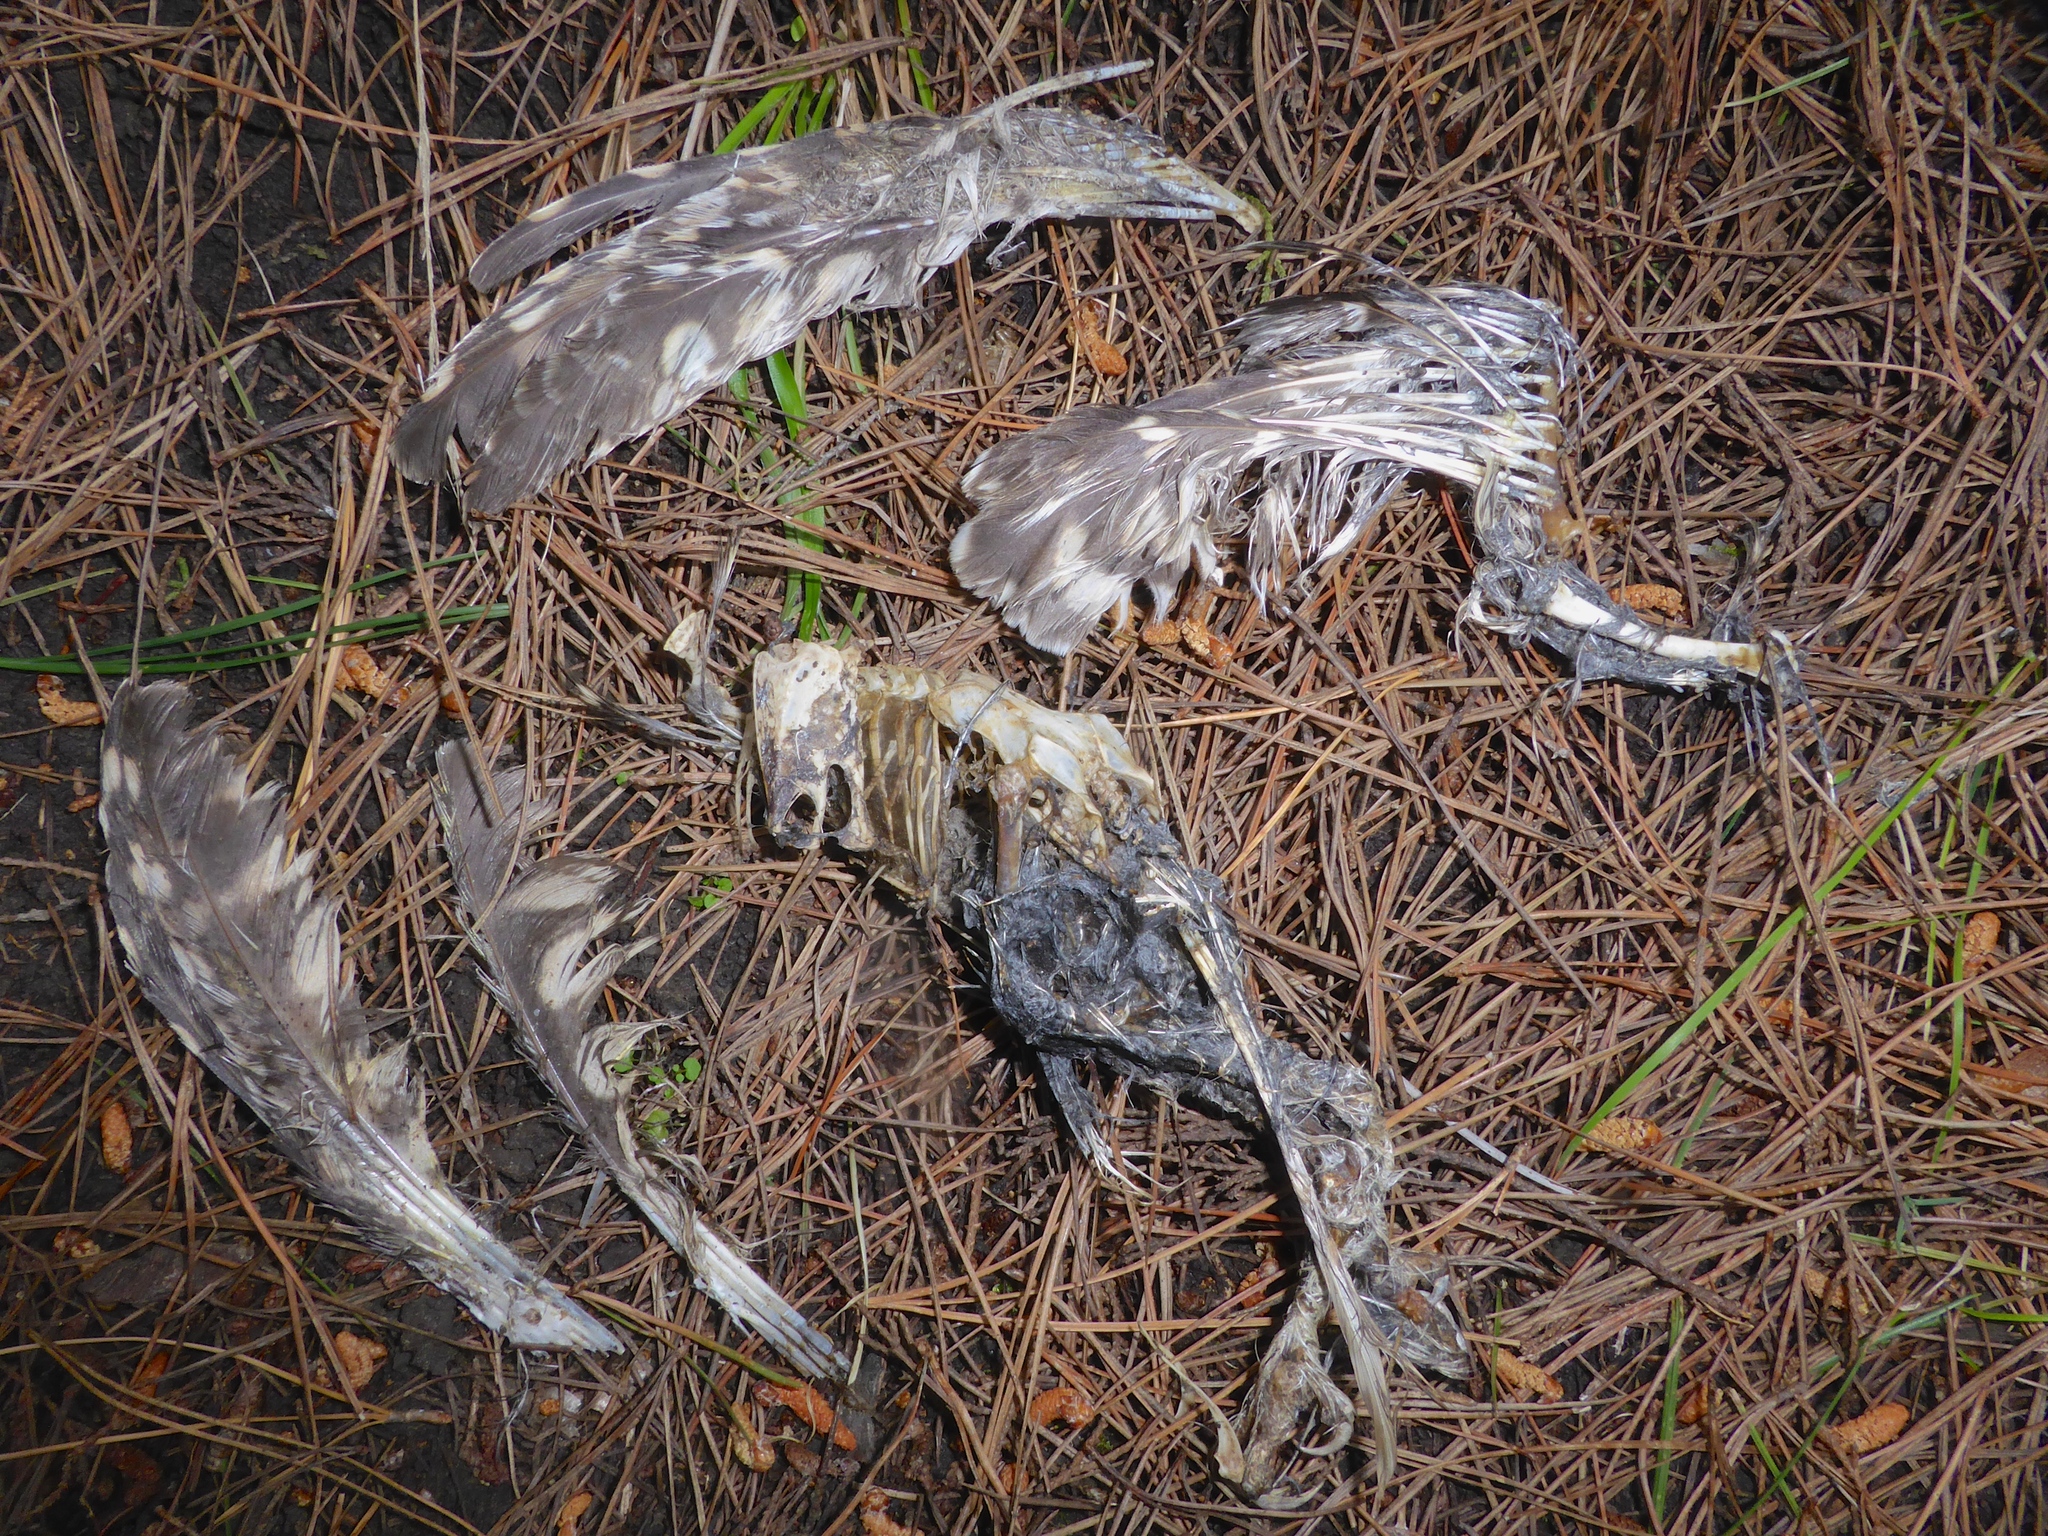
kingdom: Animalia
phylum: Chordata
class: Aves
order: Strigiformes
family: Strigidae
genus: Athene
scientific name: Athene noctua
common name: Little owl
